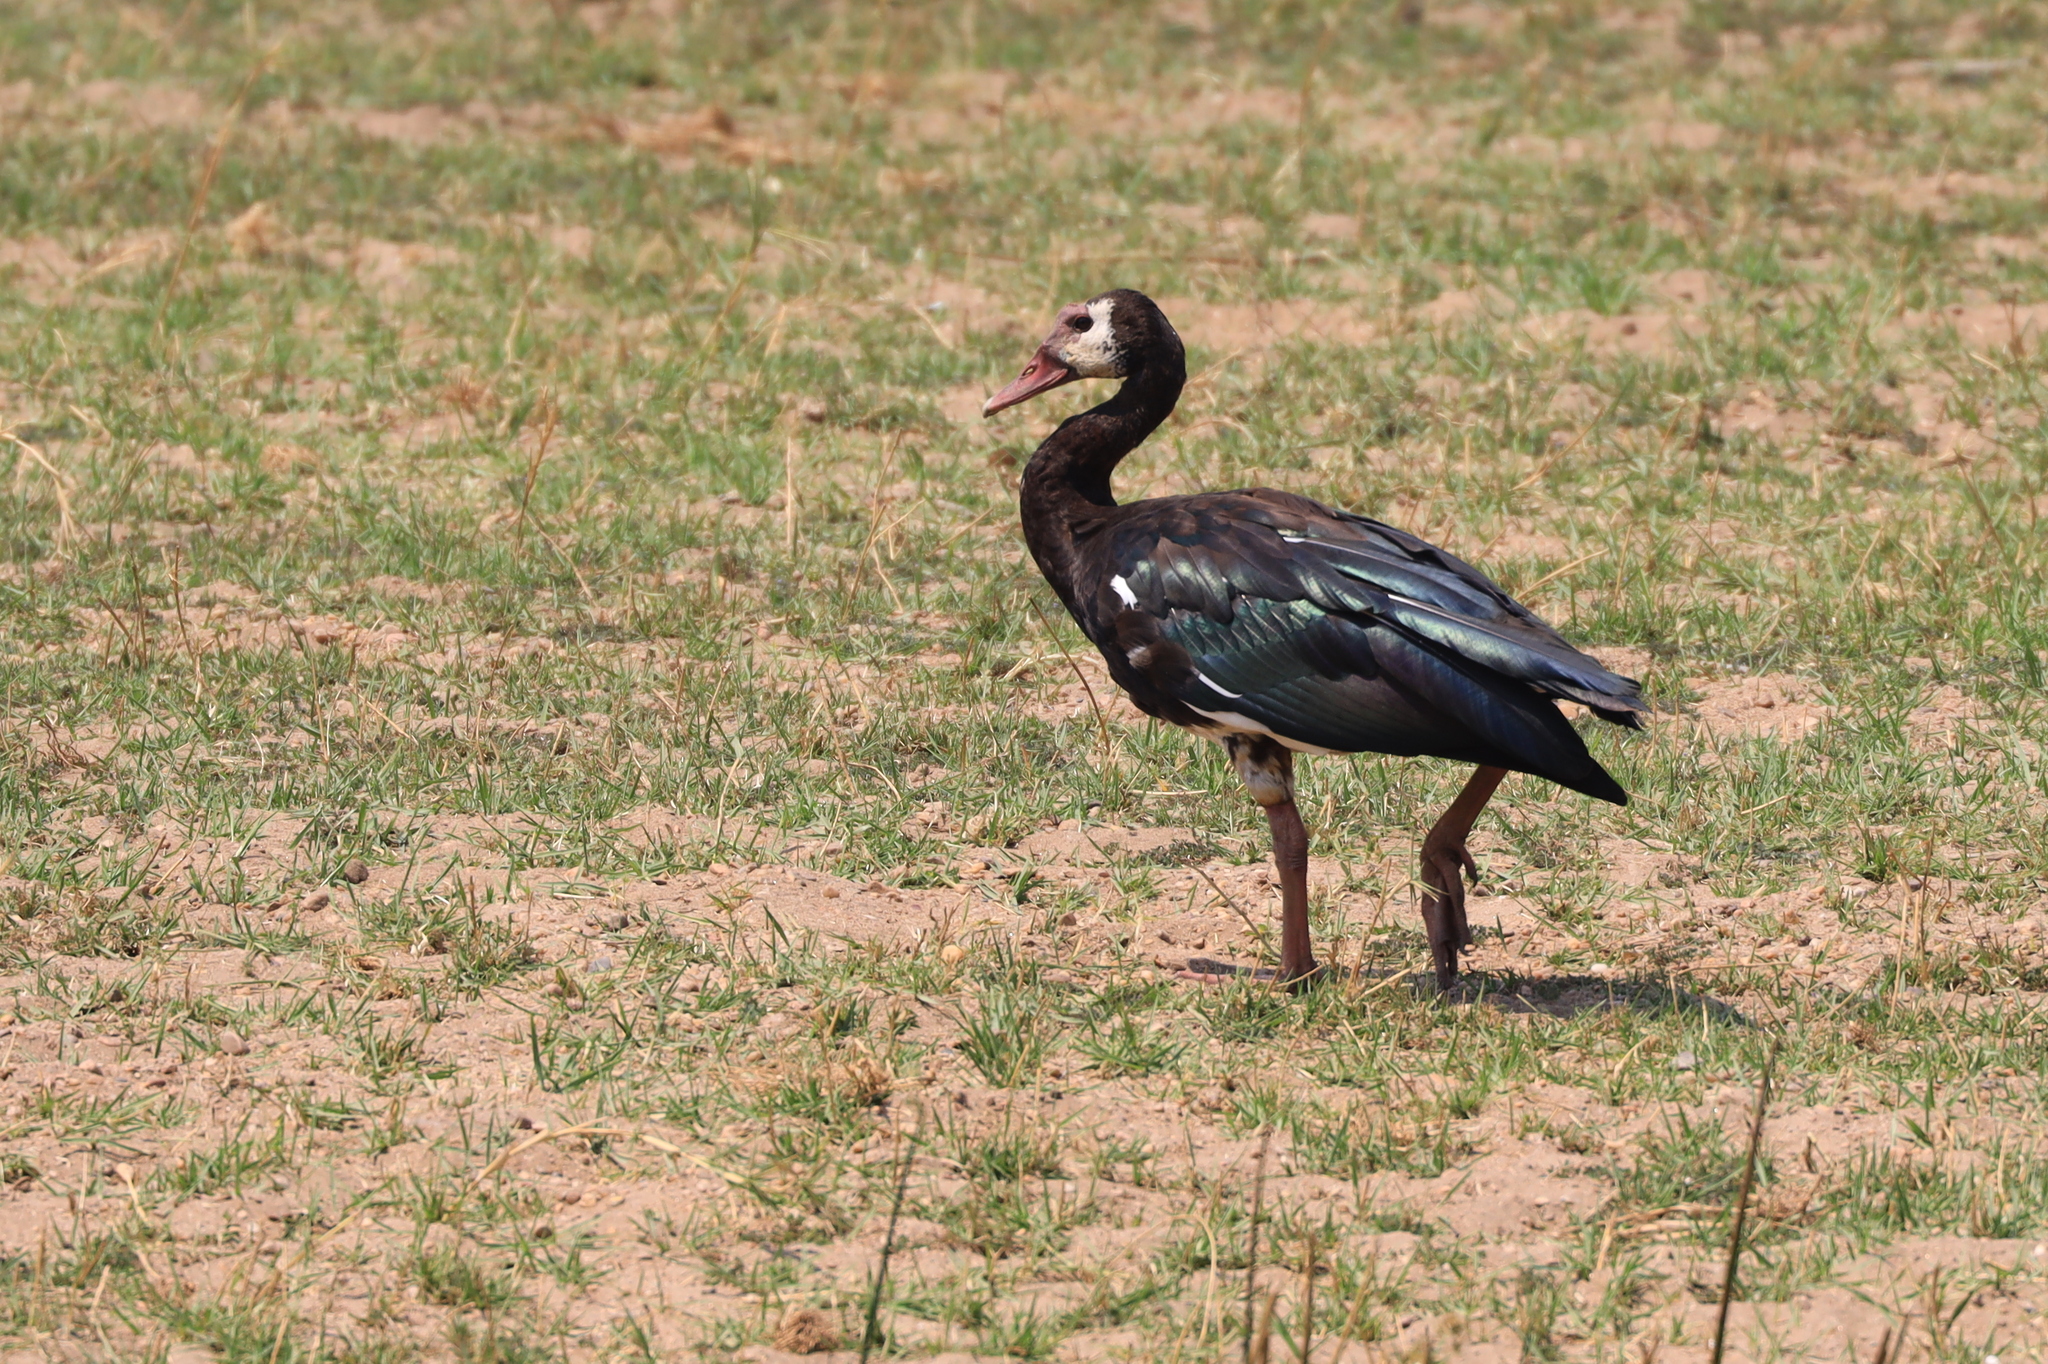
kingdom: Animalia
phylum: Chordata
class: Aves
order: Anseriformes
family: Anatidae
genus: Plectropterus
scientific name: Plectropterus gambensis
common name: Spur-winged goose
